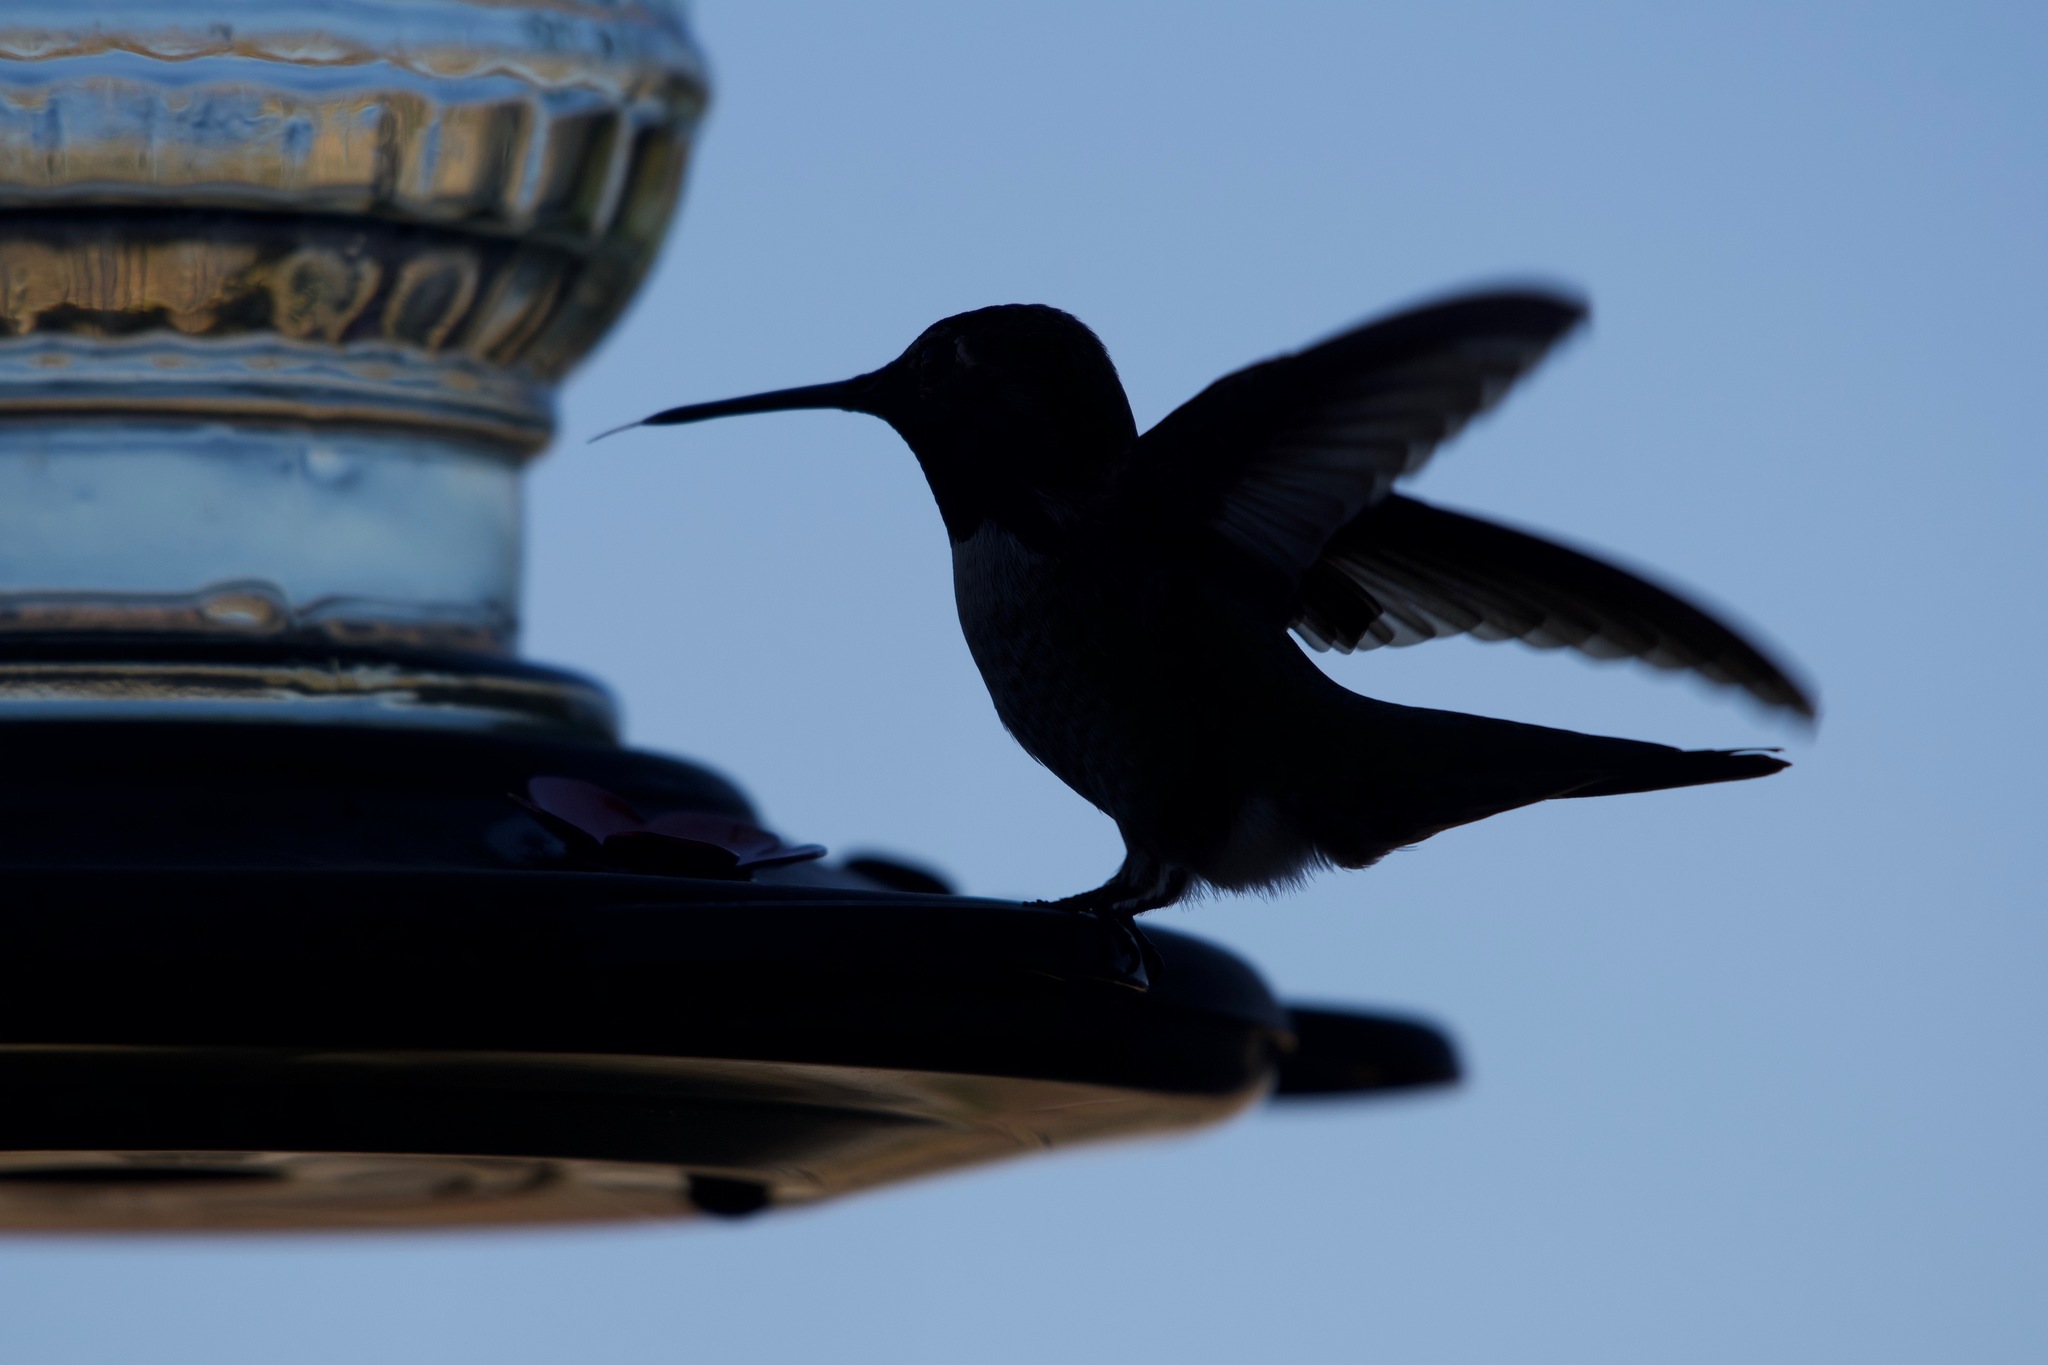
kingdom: Animalia
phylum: Chordata
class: Aves
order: Apodiformes
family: Trochilidae
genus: Calypte
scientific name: Calypte anna
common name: Anna's hummingbird
